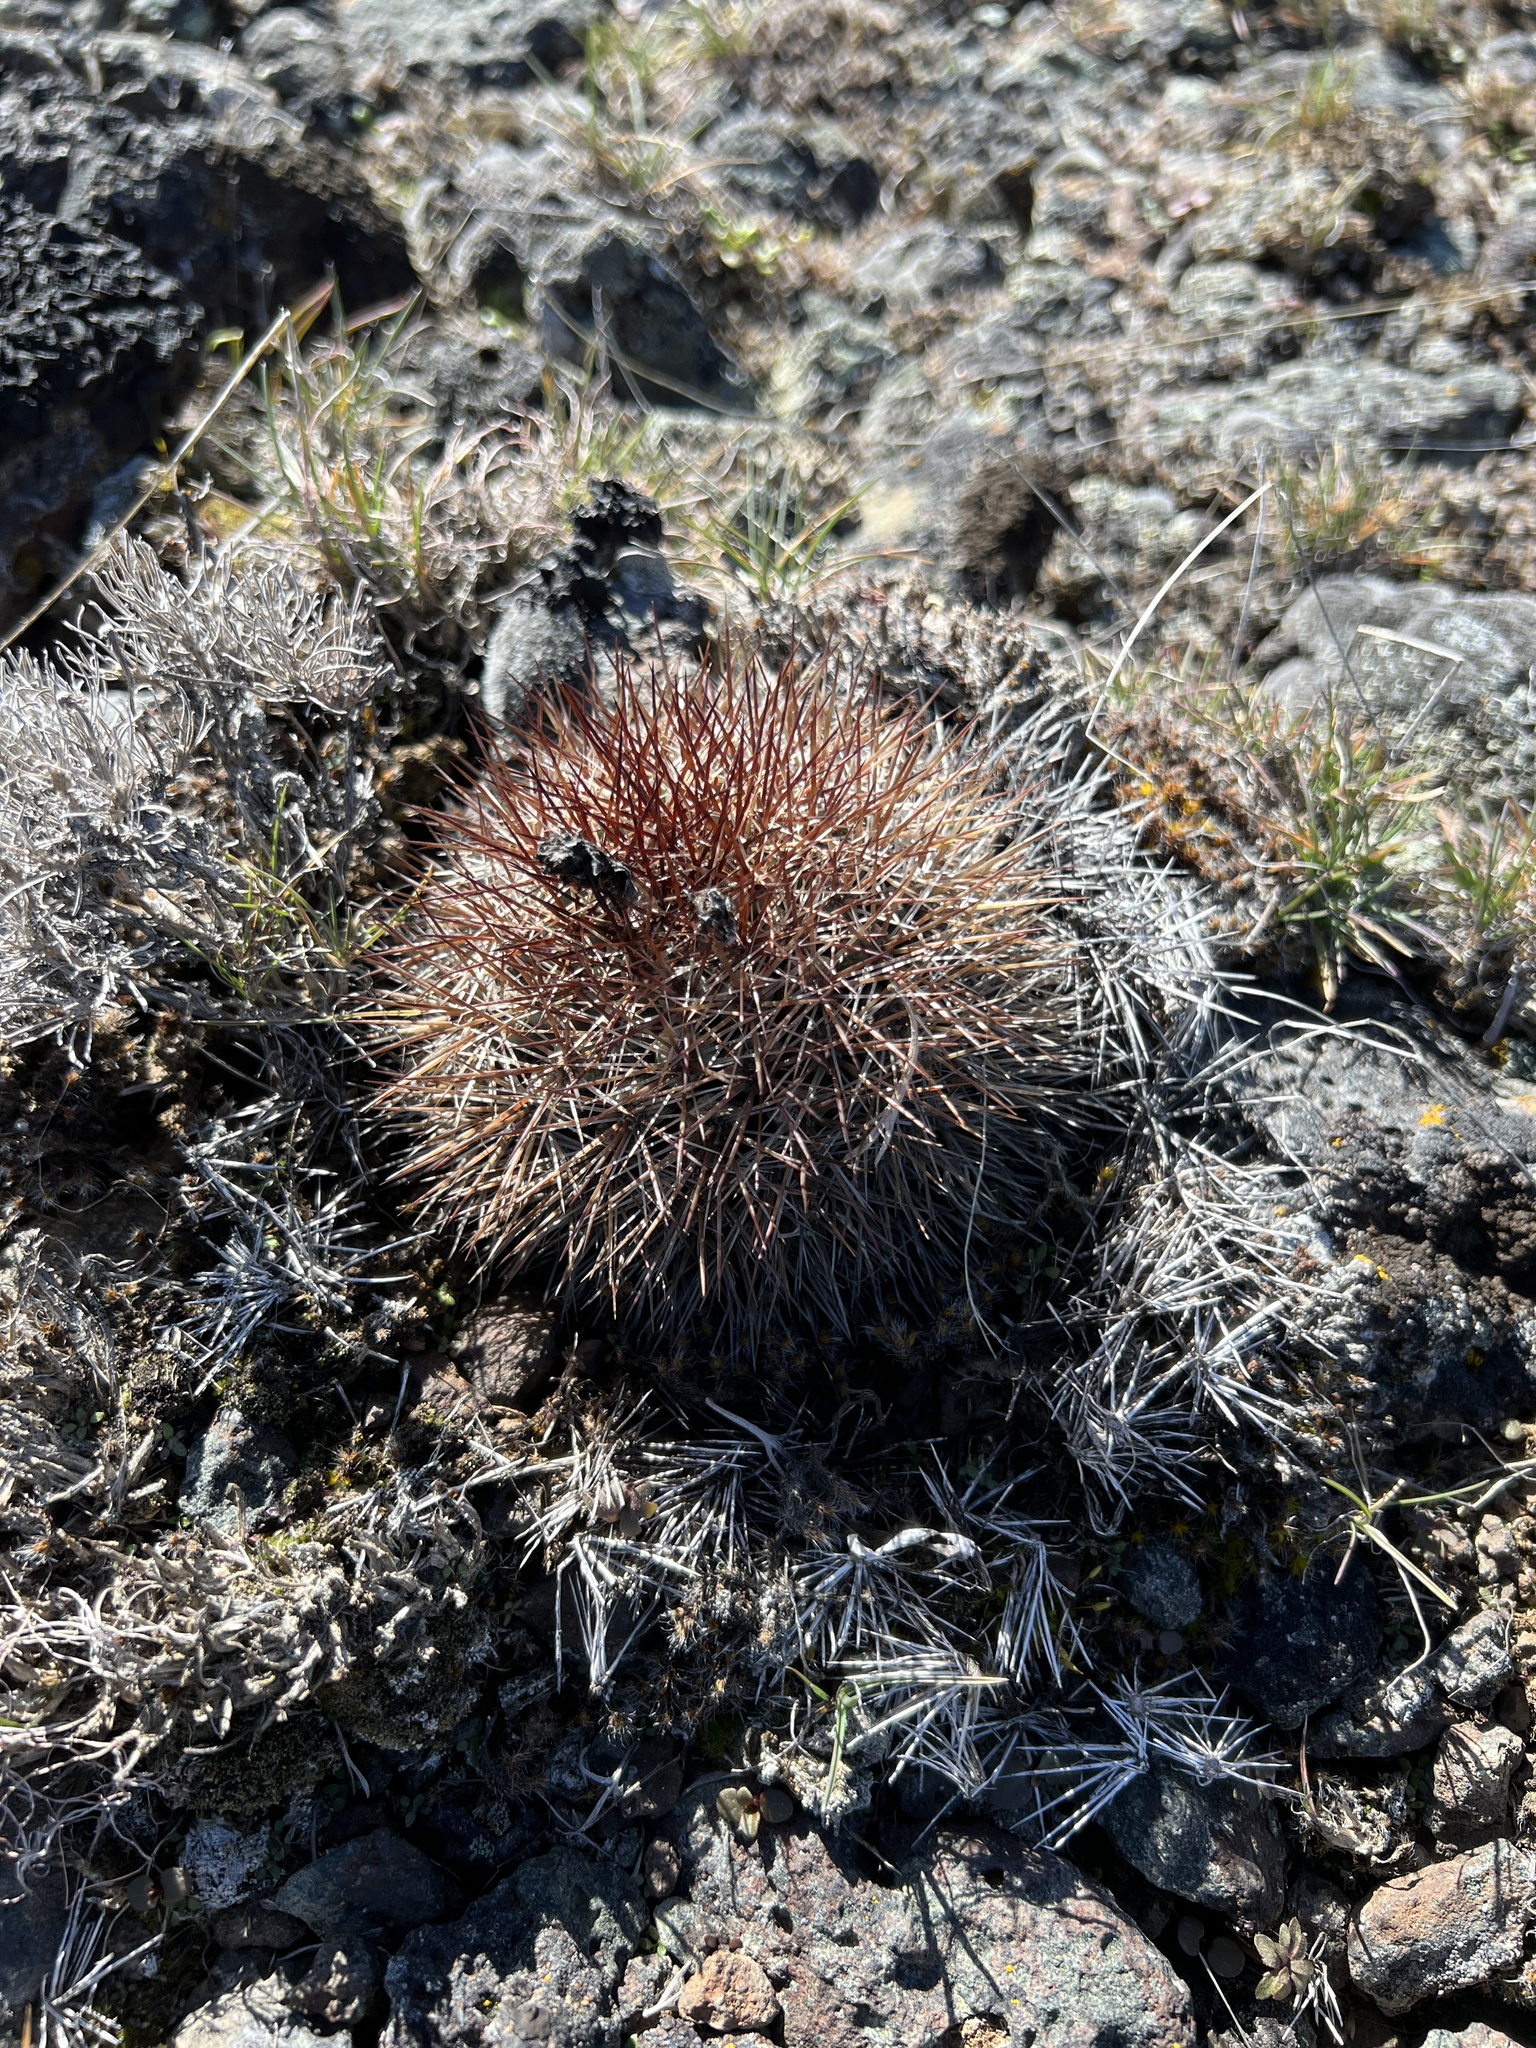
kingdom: Plantae
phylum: Tracheophyta
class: Magnoliopsida
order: Caryophyllales
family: Cactaceae
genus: Pediocactus
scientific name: Pediocactus nigrispinus
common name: Simpson's hedgehog cactus
